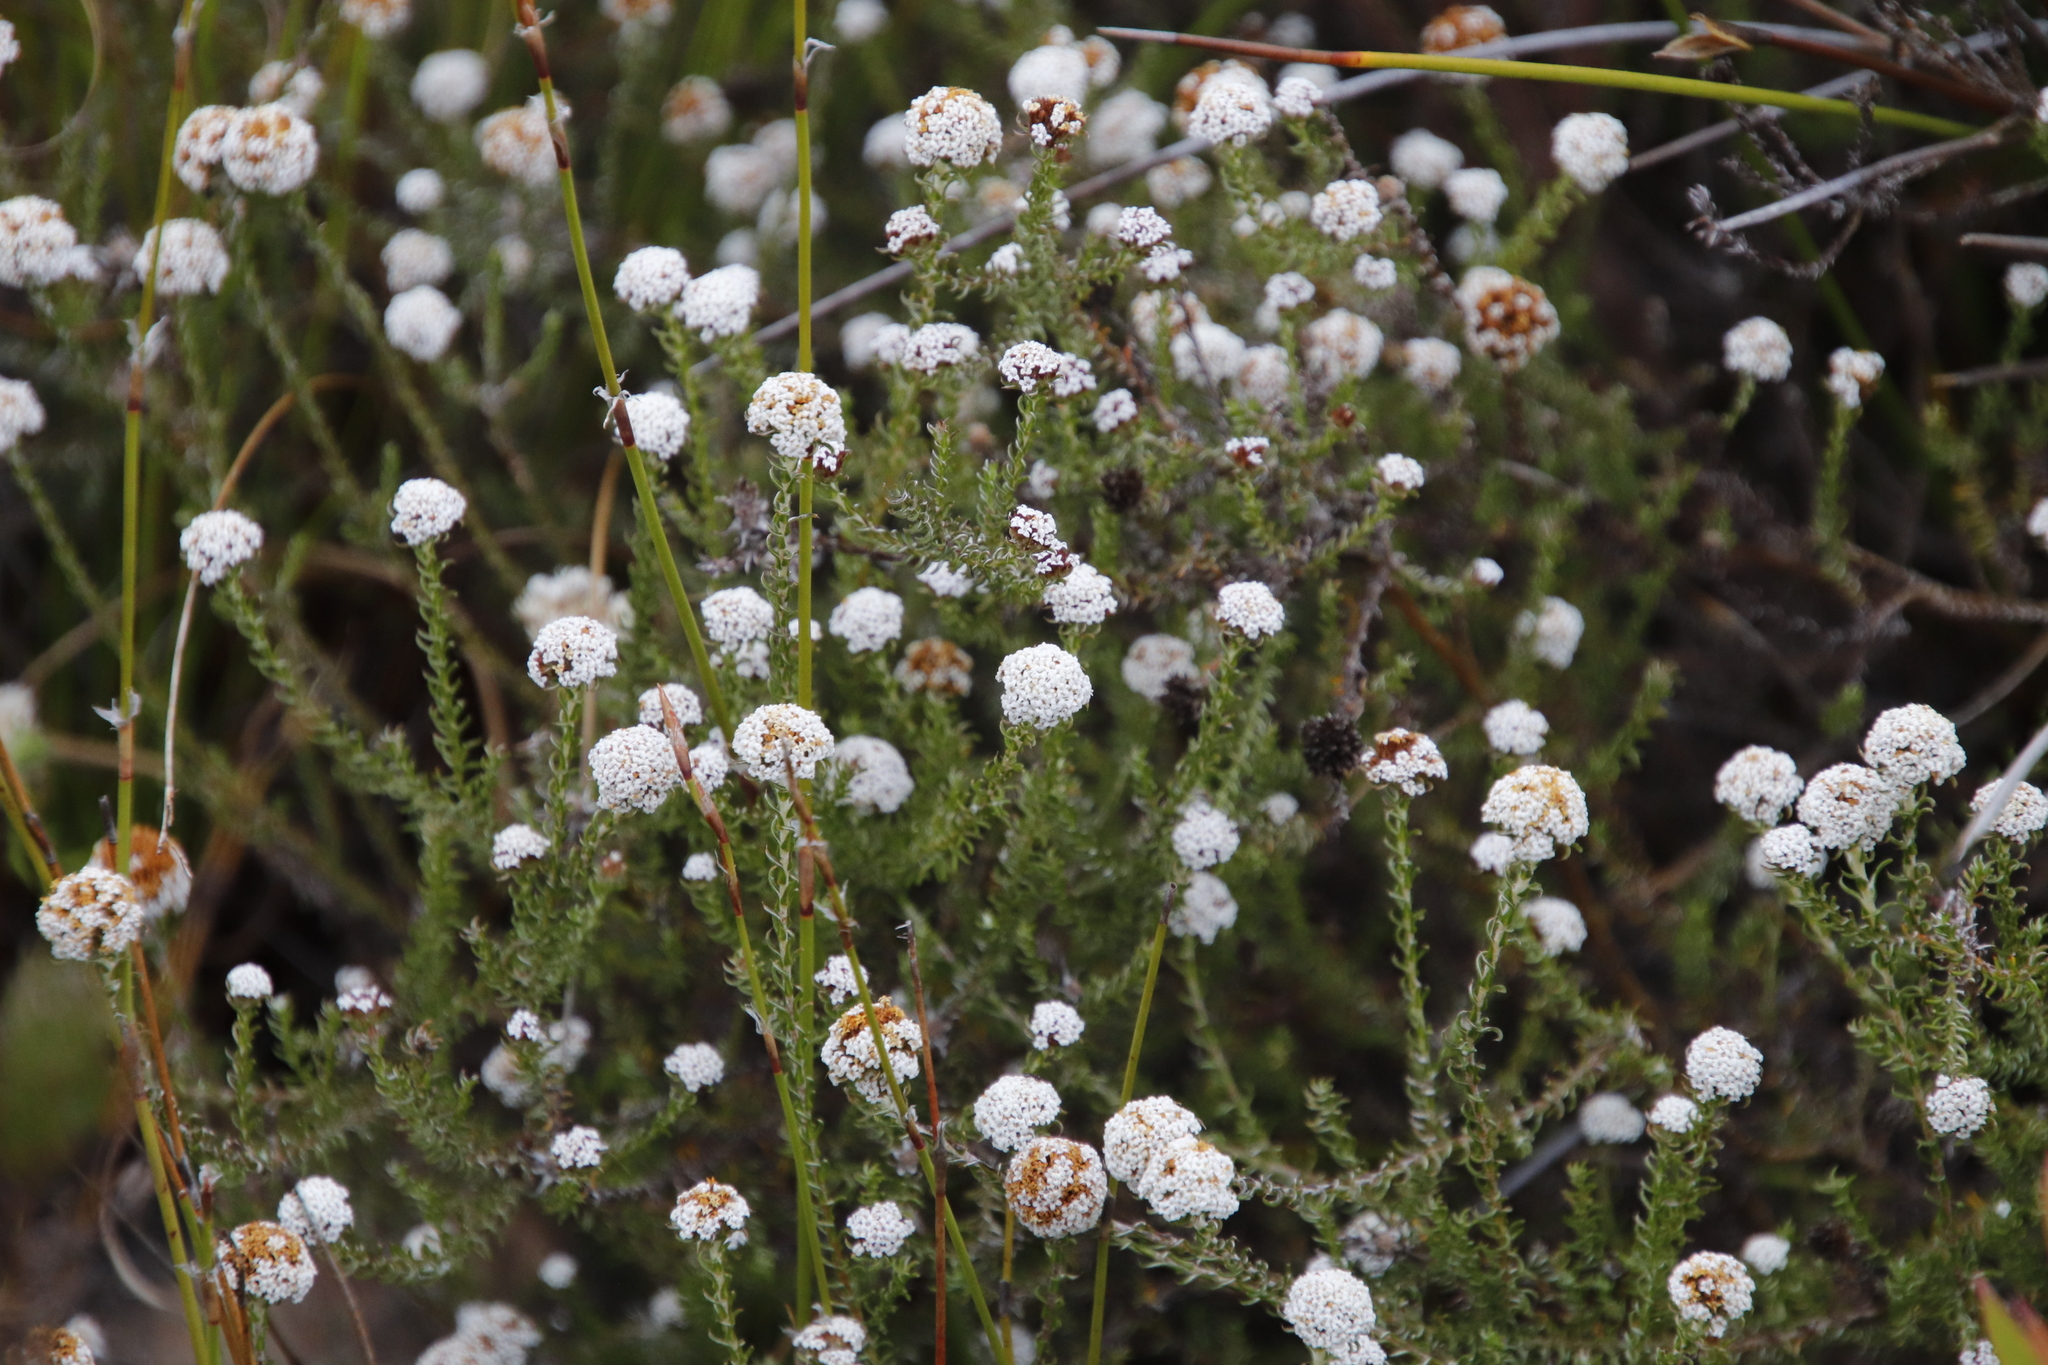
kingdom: Plantae
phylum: Tracheophyta
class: Magnoliopsida
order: Asterales
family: Asteraceae
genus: Stoebe
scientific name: Stoebe capitata
